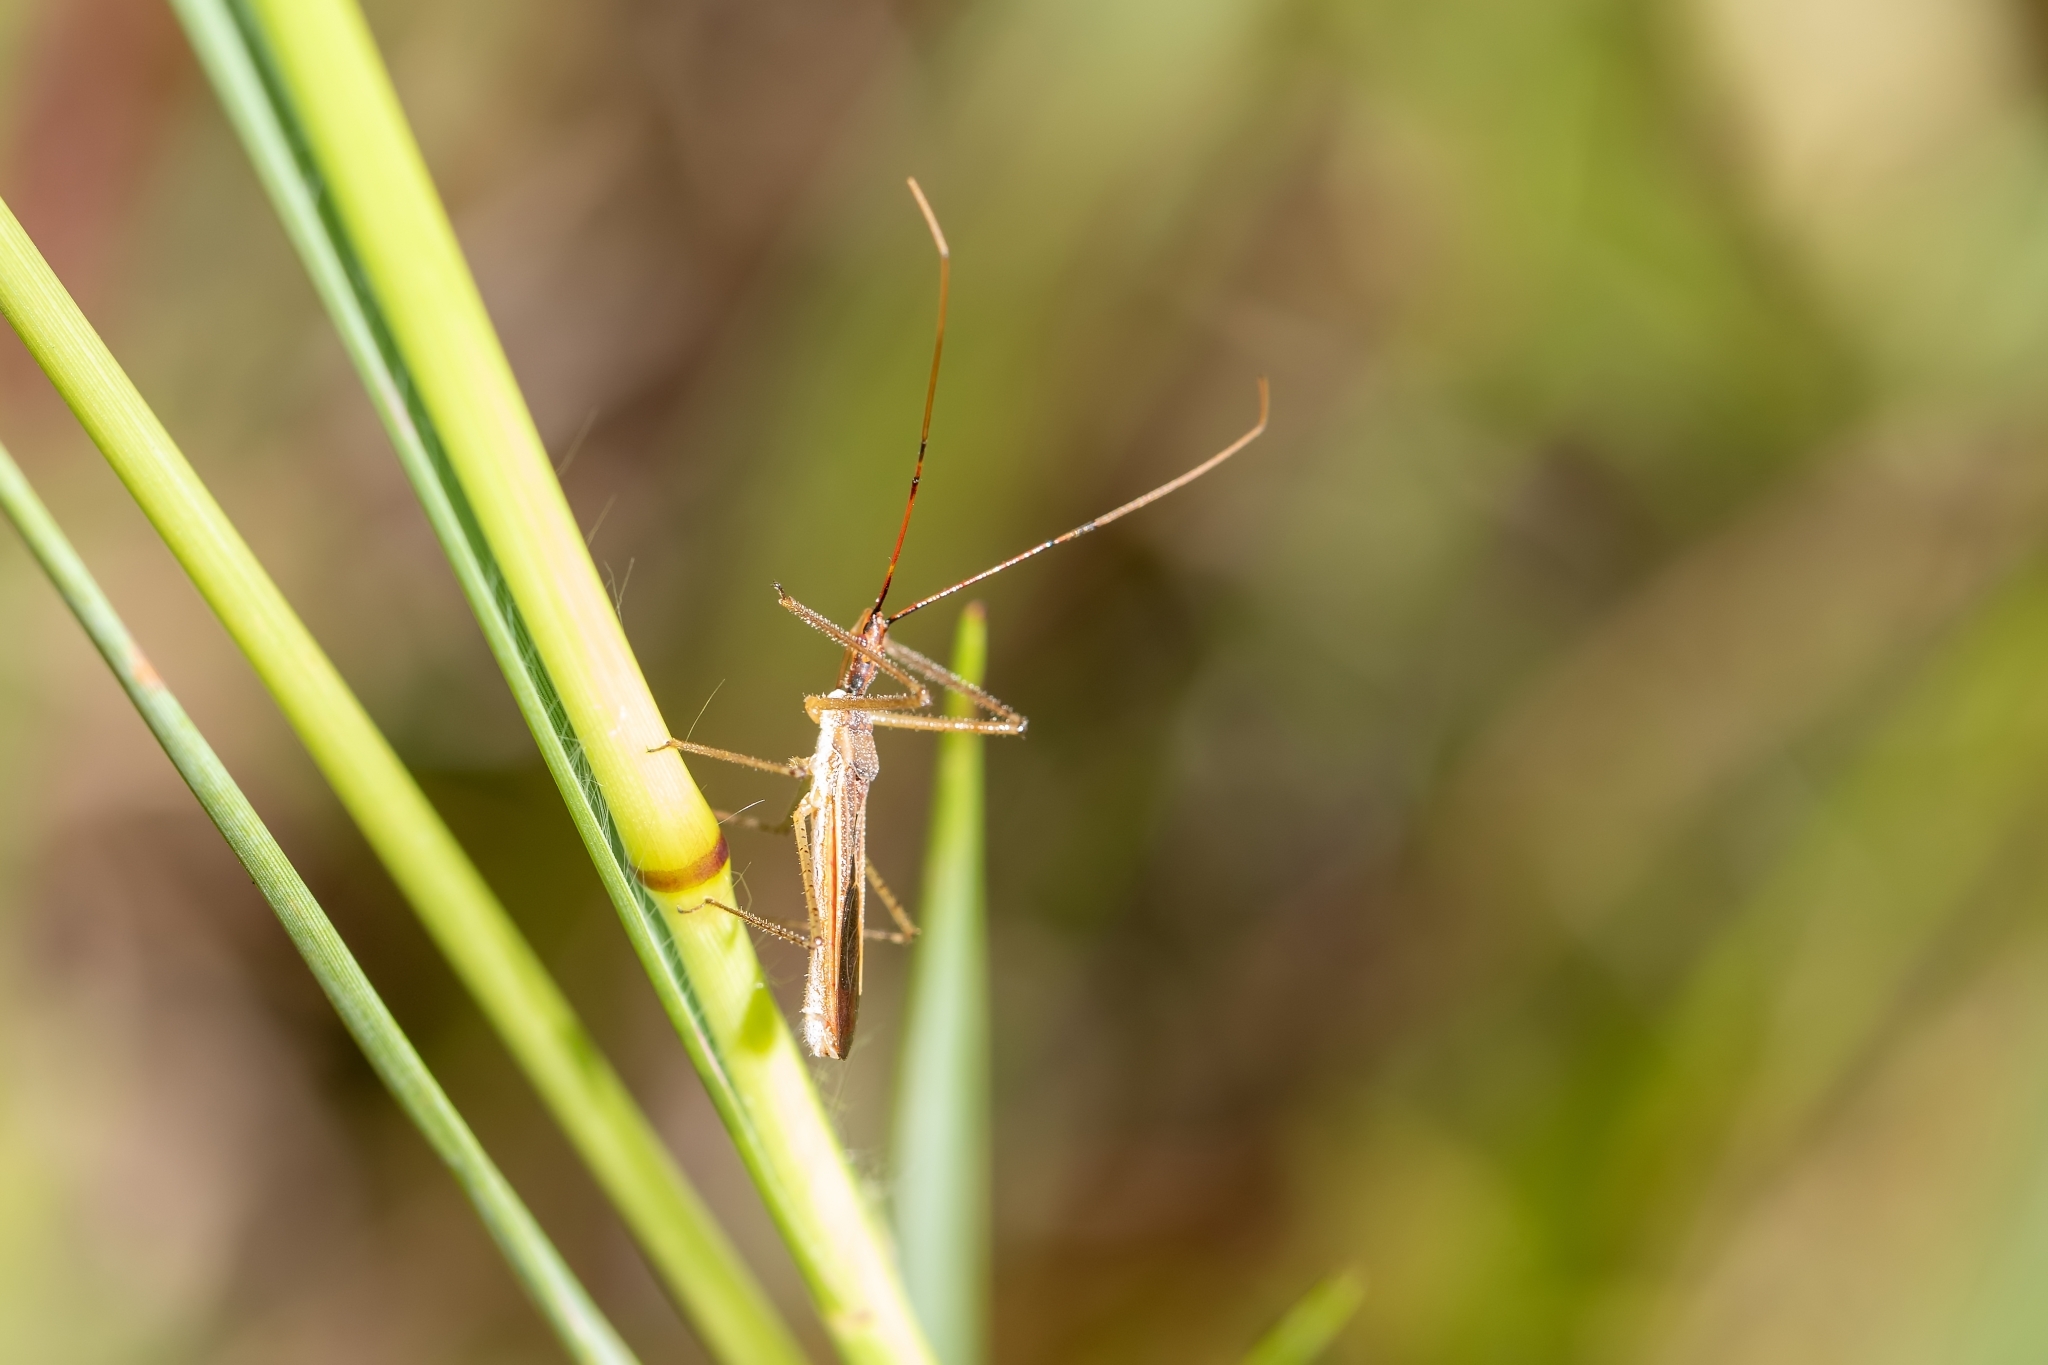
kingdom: Animalia
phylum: Arthropoda
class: Insecta
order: Hemiptera
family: Reduviidae
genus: Zelus
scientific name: Zelus cervicalis
